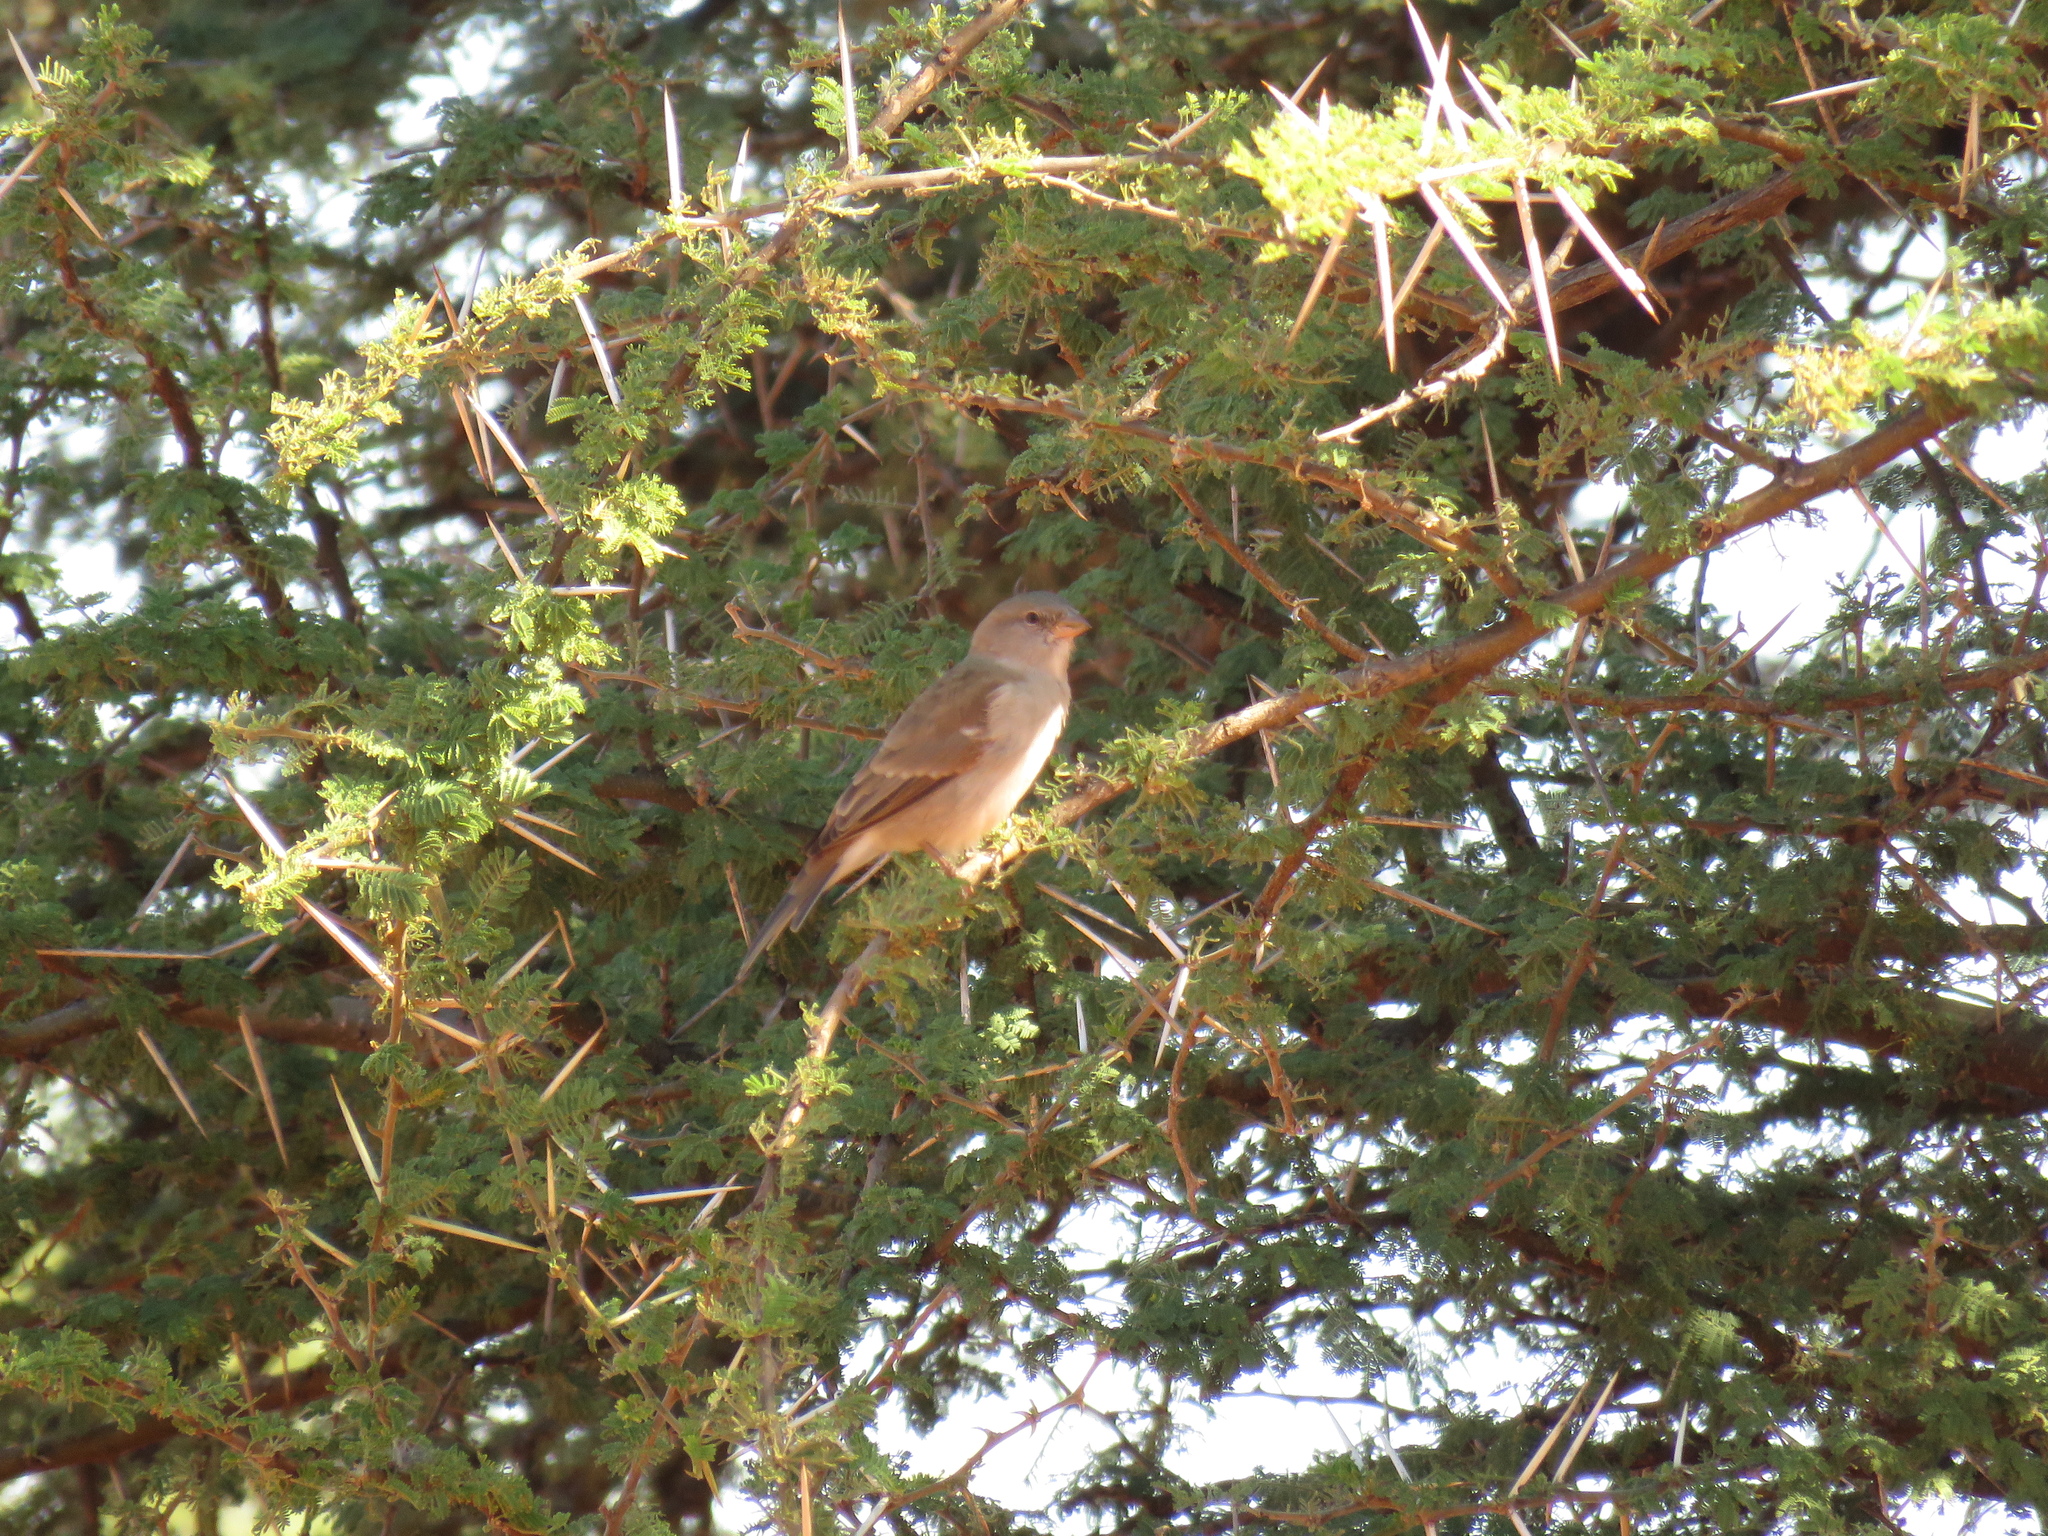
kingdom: Animalia
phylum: Chordata
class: Aves
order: Passeriformes
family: Passeridae
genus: Passer
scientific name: Passer diffusus
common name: Southern grey-headed sparrow
